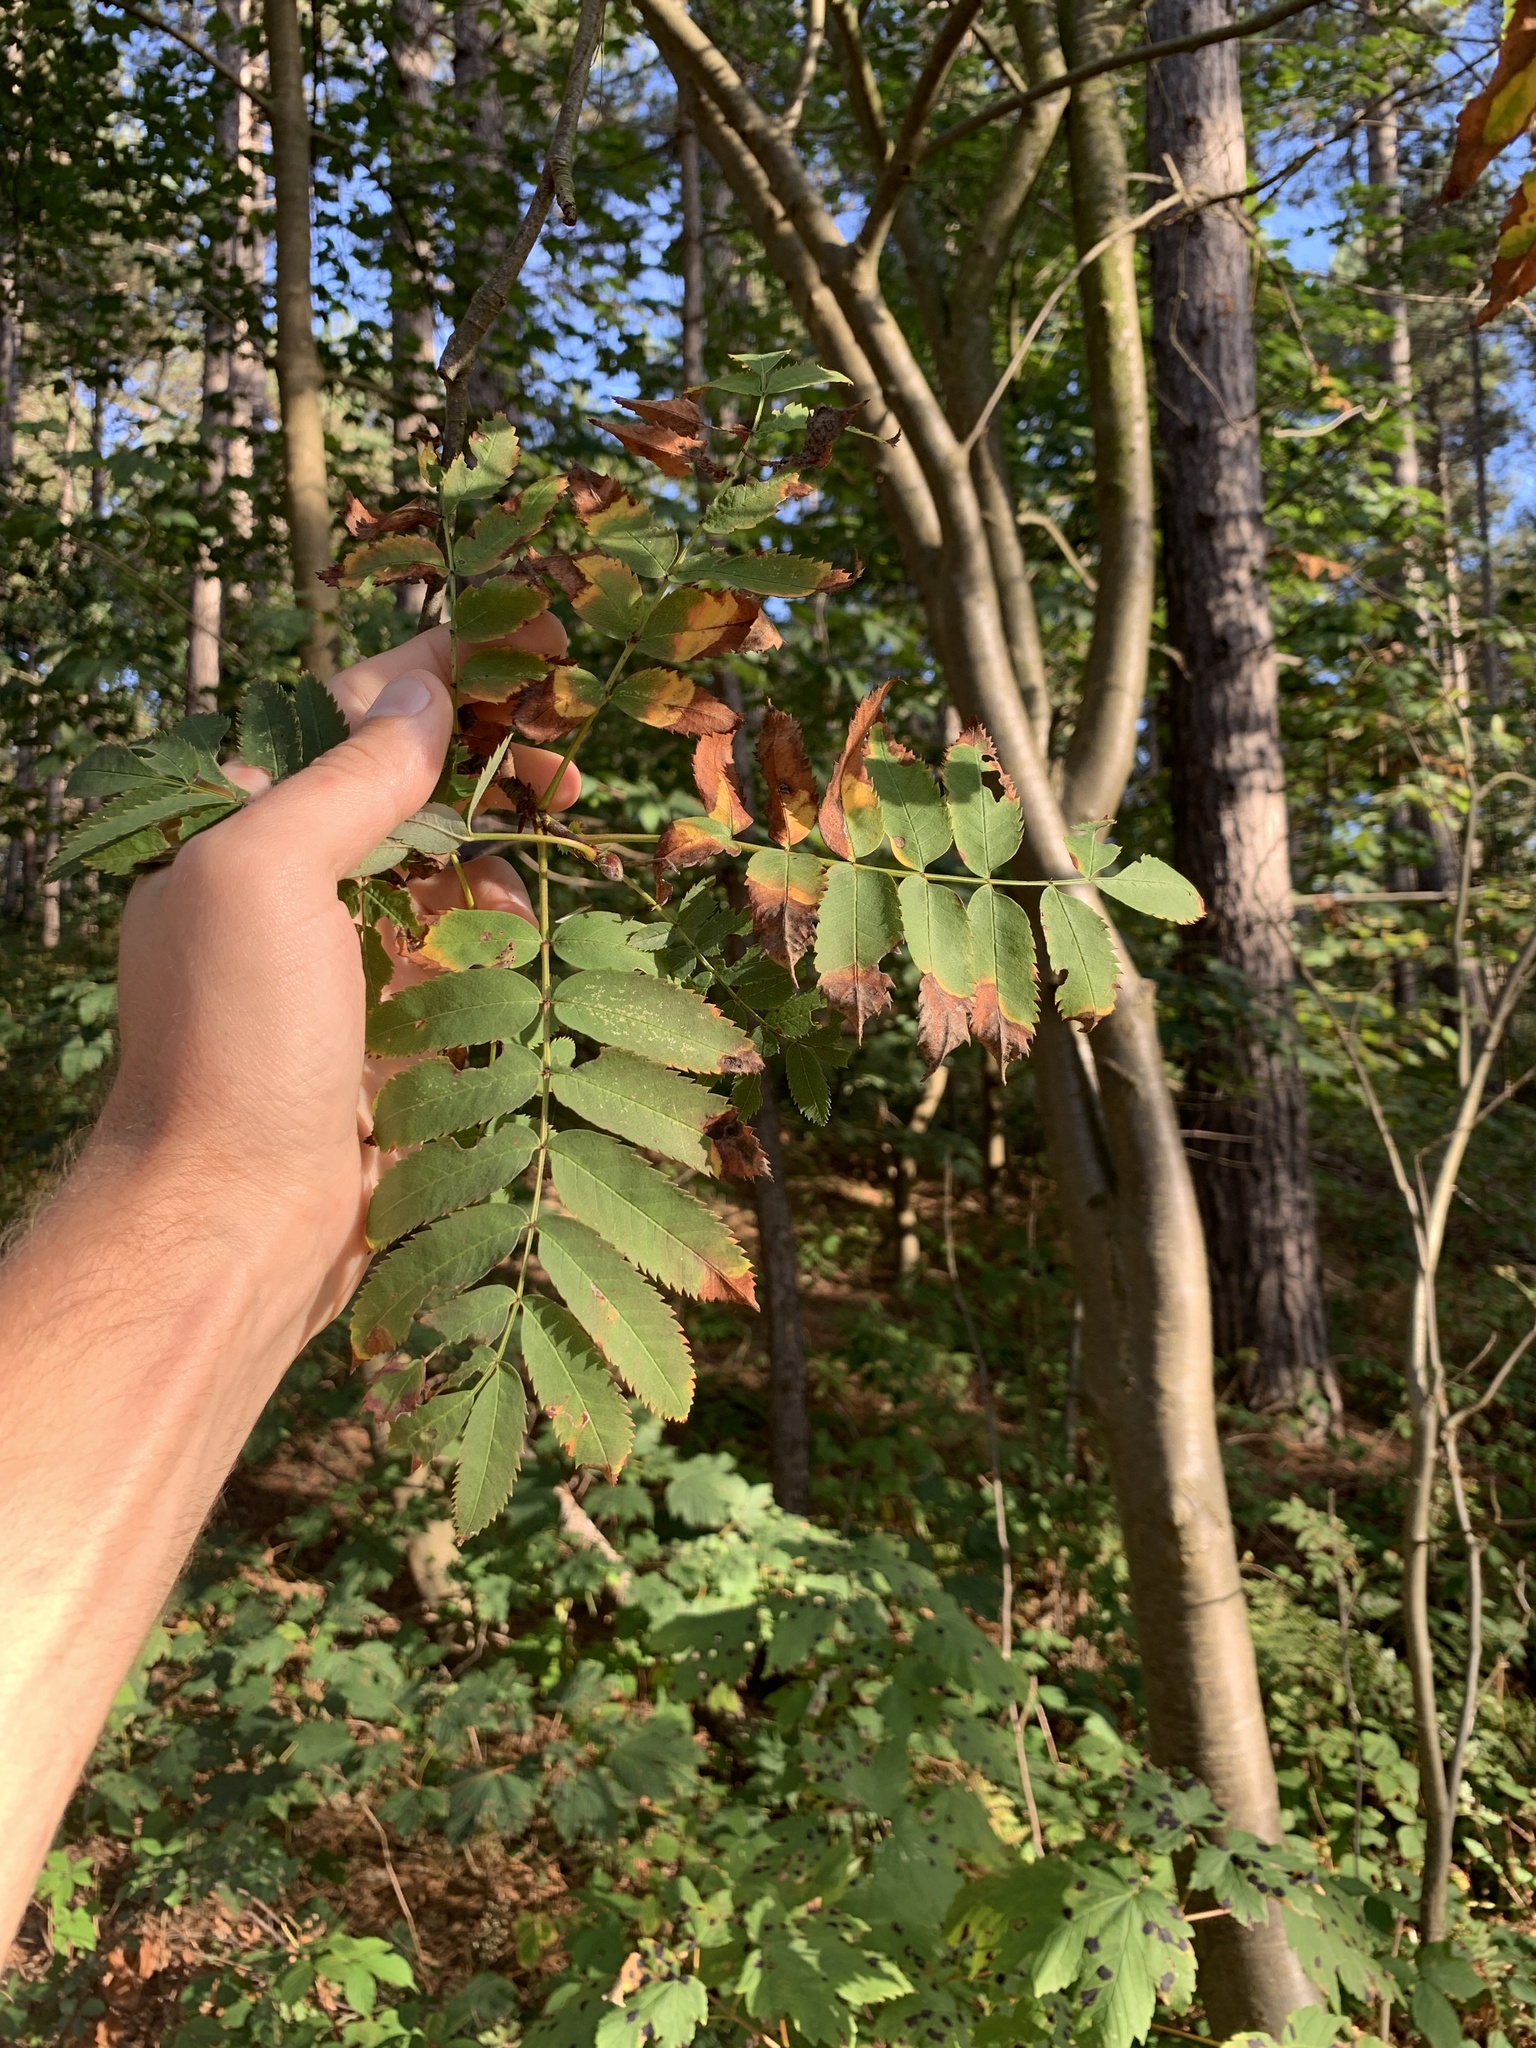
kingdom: Plantae
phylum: Tracheophyta
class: Magnoliopsida
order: Rosales
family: Rosaceae
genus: Sorbus
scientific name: Sorbus aucuparia
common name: Rowan
